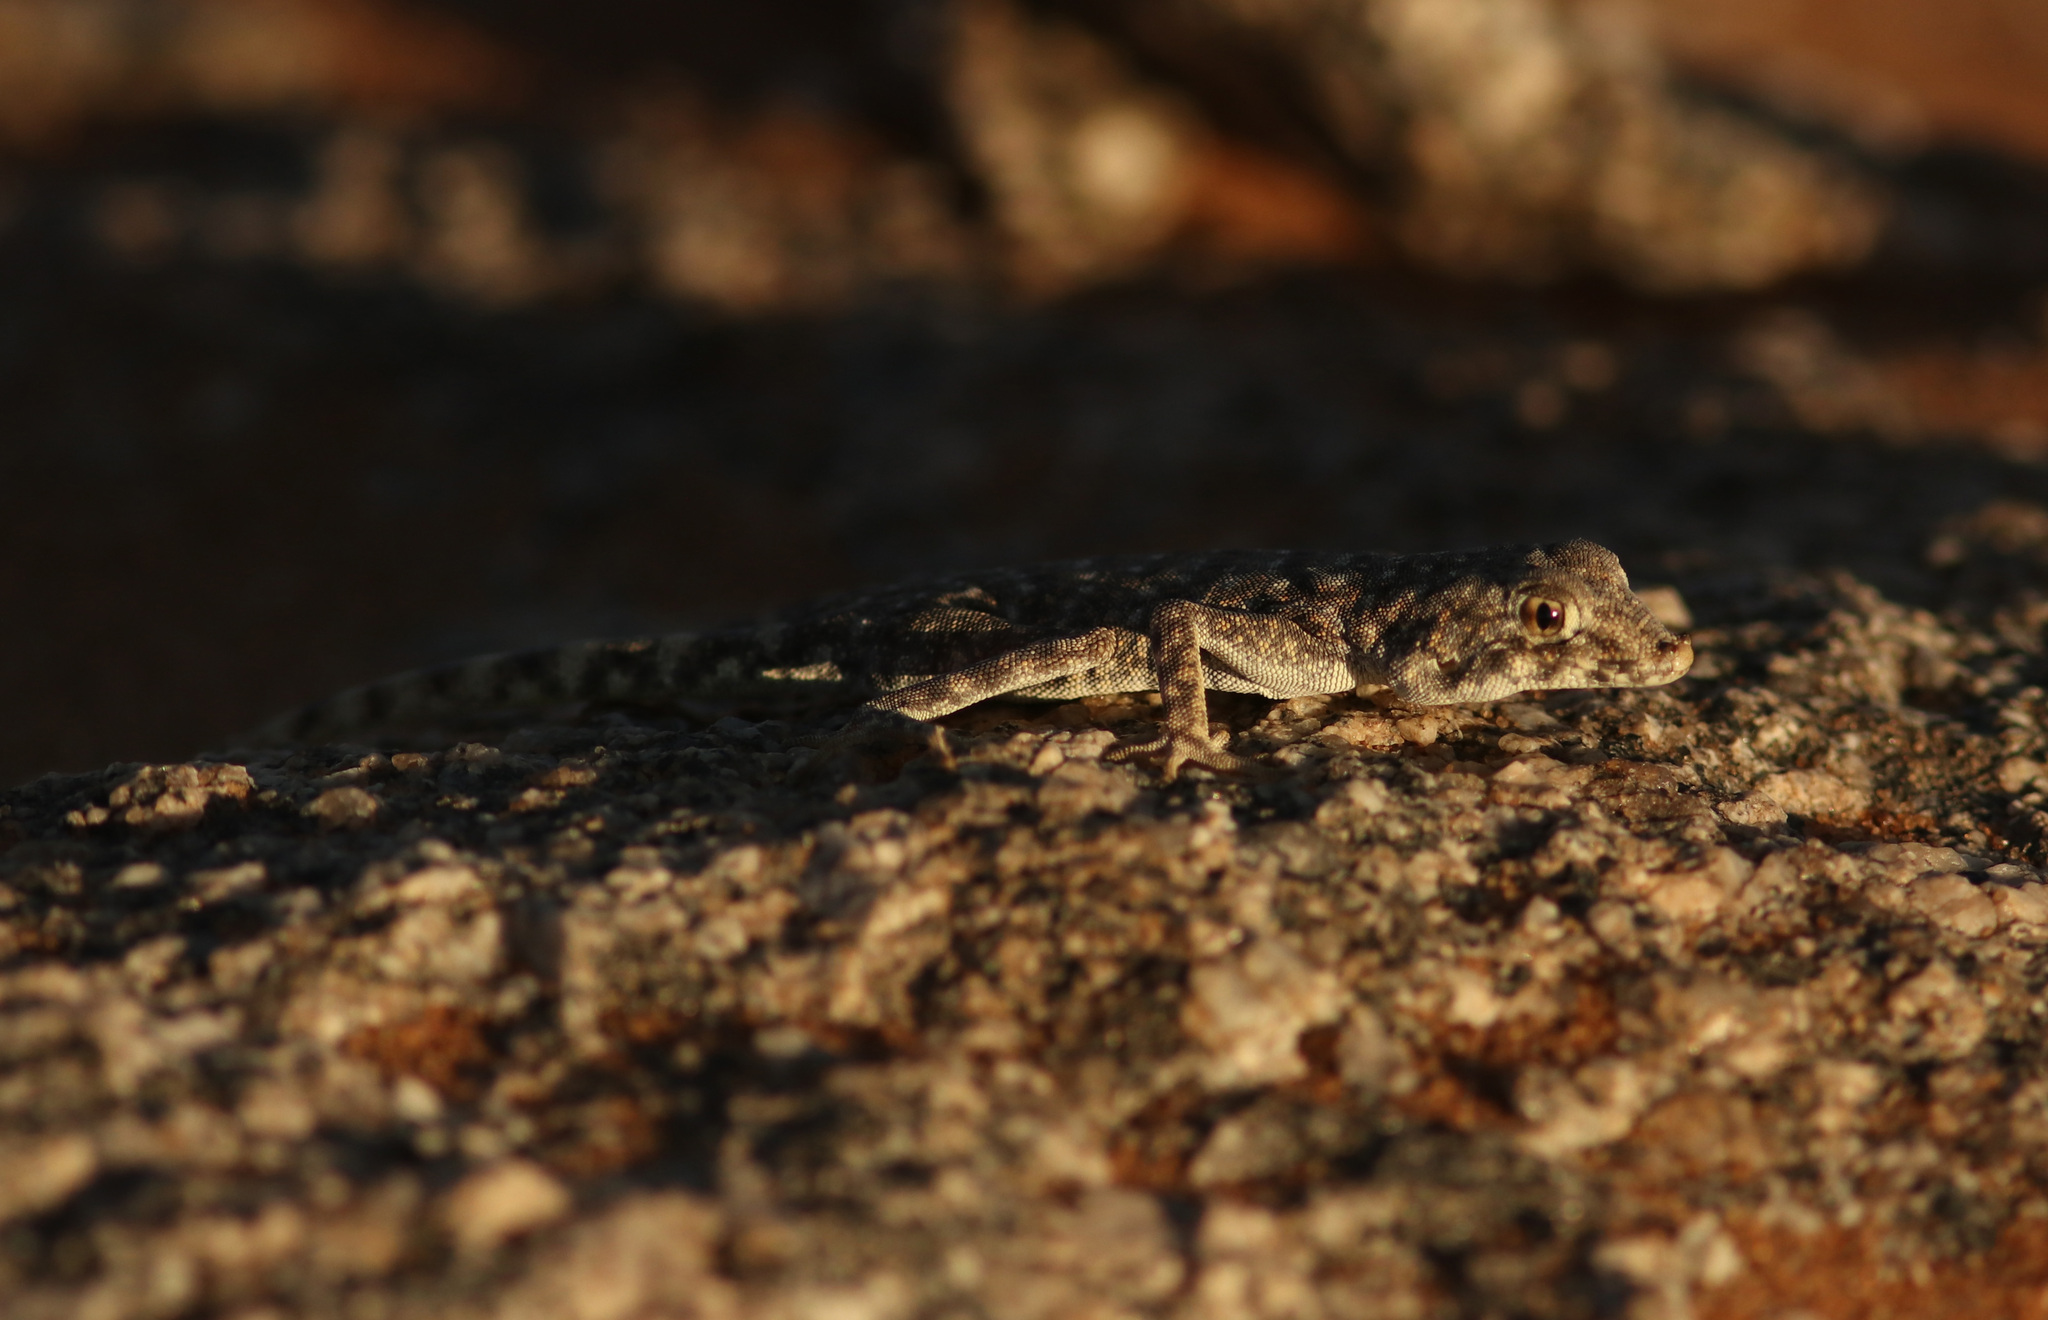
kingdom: Animalia
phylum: Chordata
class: Squamata
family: Gekkonidae
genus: Rhoptropus
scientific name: Rhoptropus afer
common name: Namib day gecko
